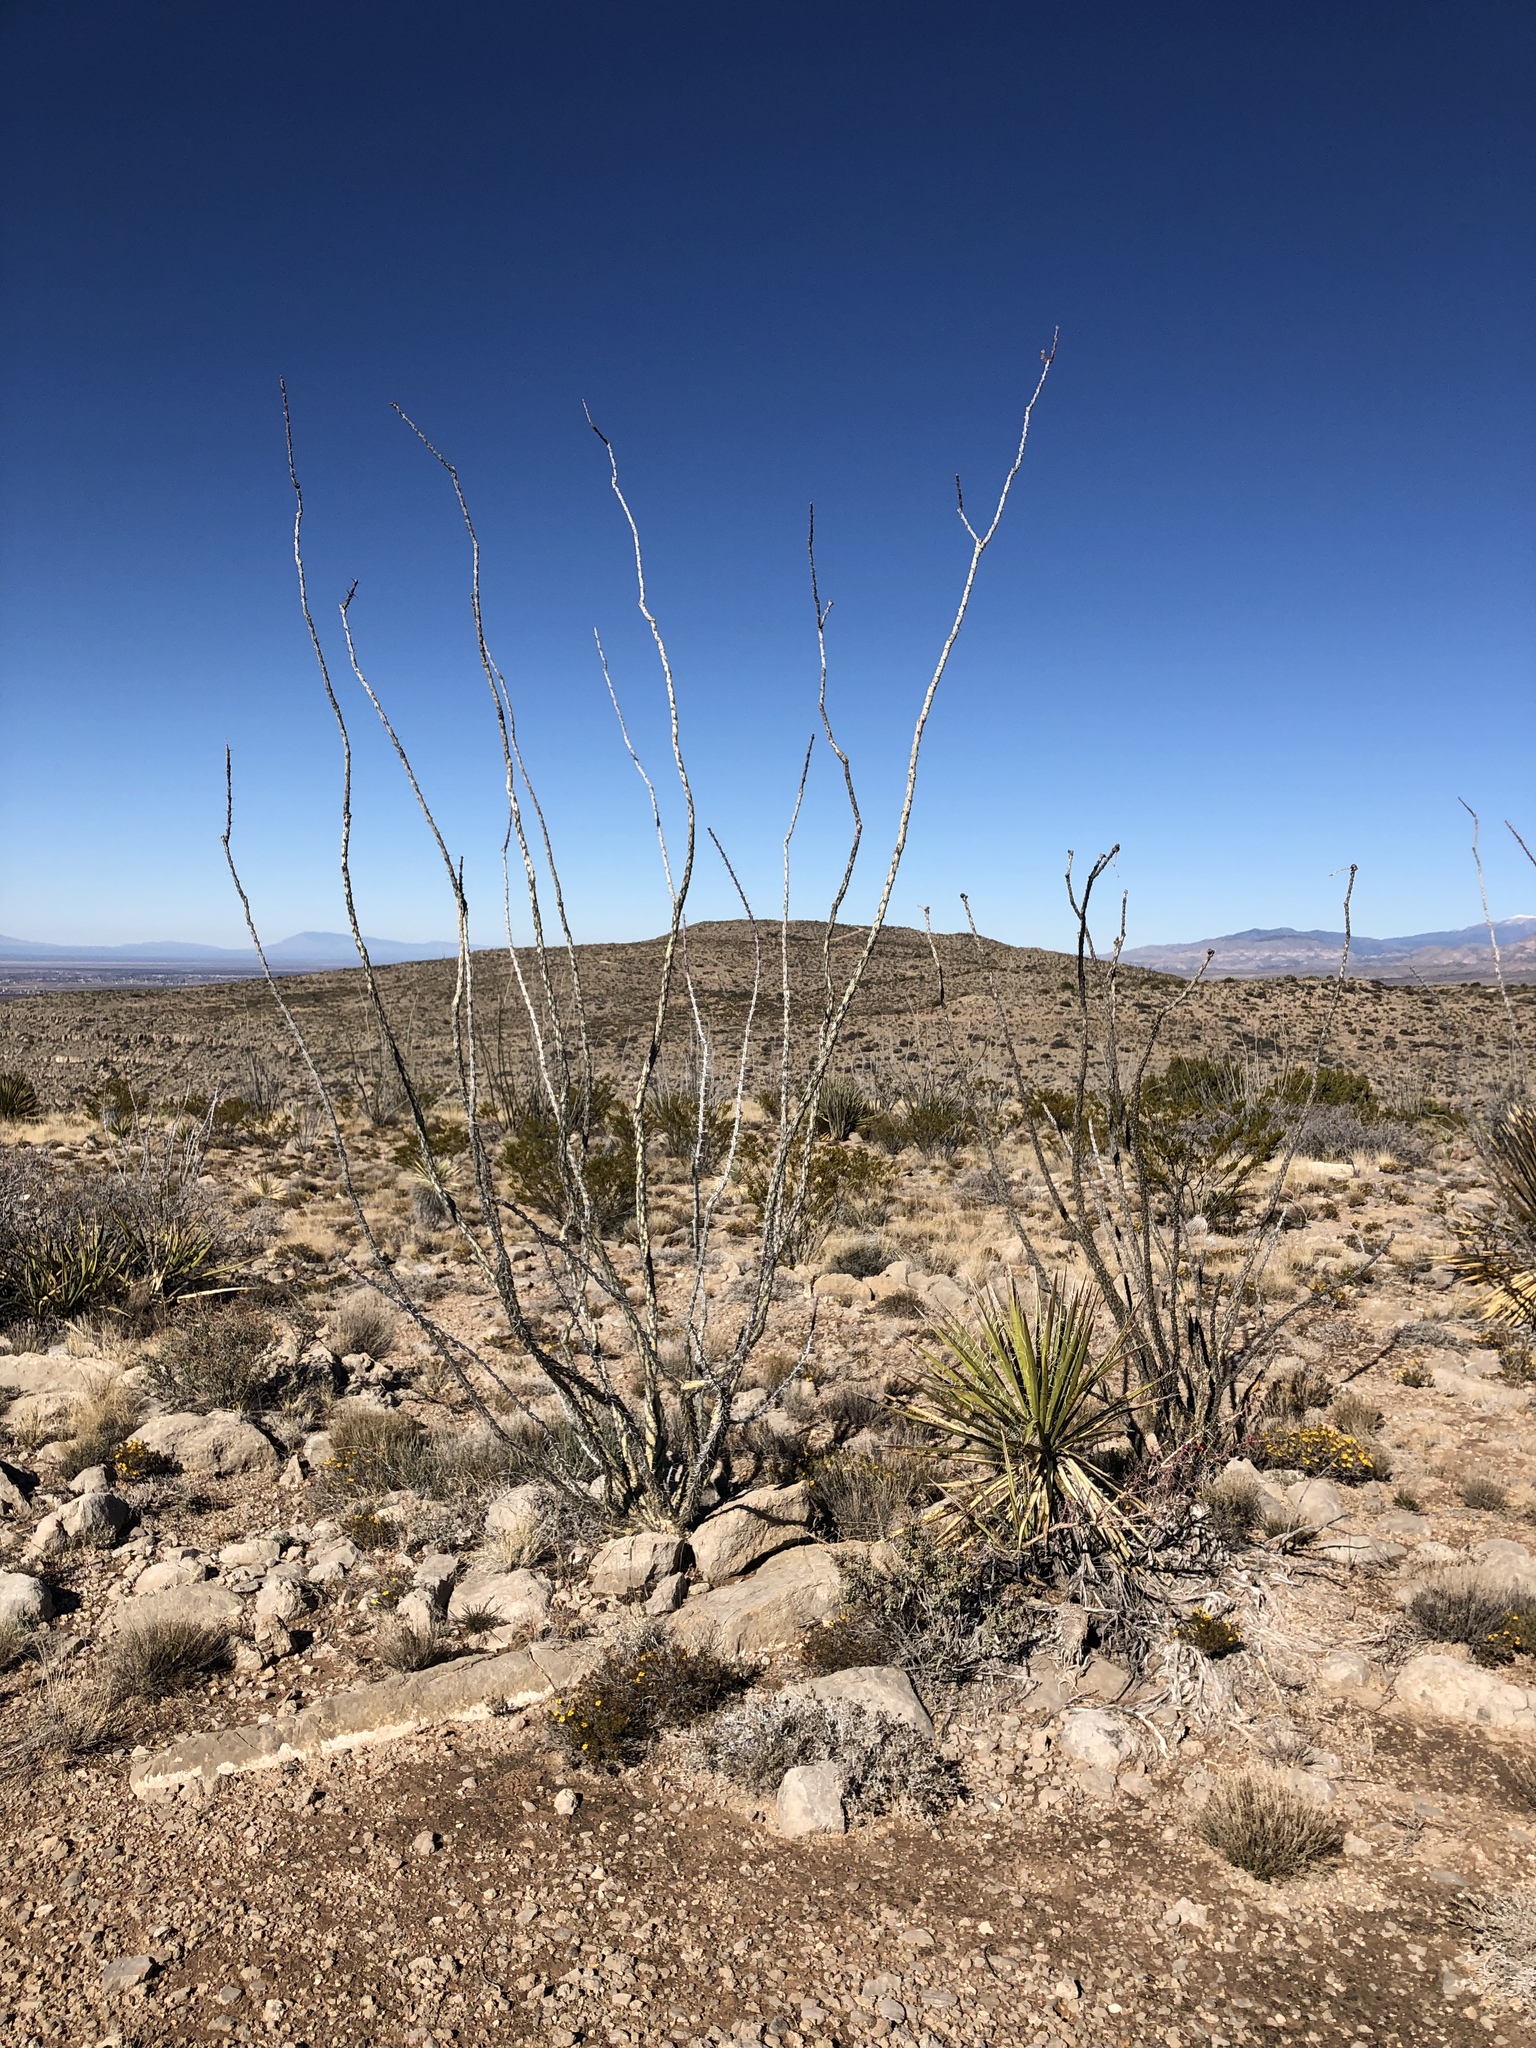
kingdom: Plantae
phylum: Tracheophyta
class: Magnoliopsida
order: Ericales
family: Fouquieriaceae
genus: Fouquieria
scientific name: Fouquieria splendens
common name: Vine-cactus
